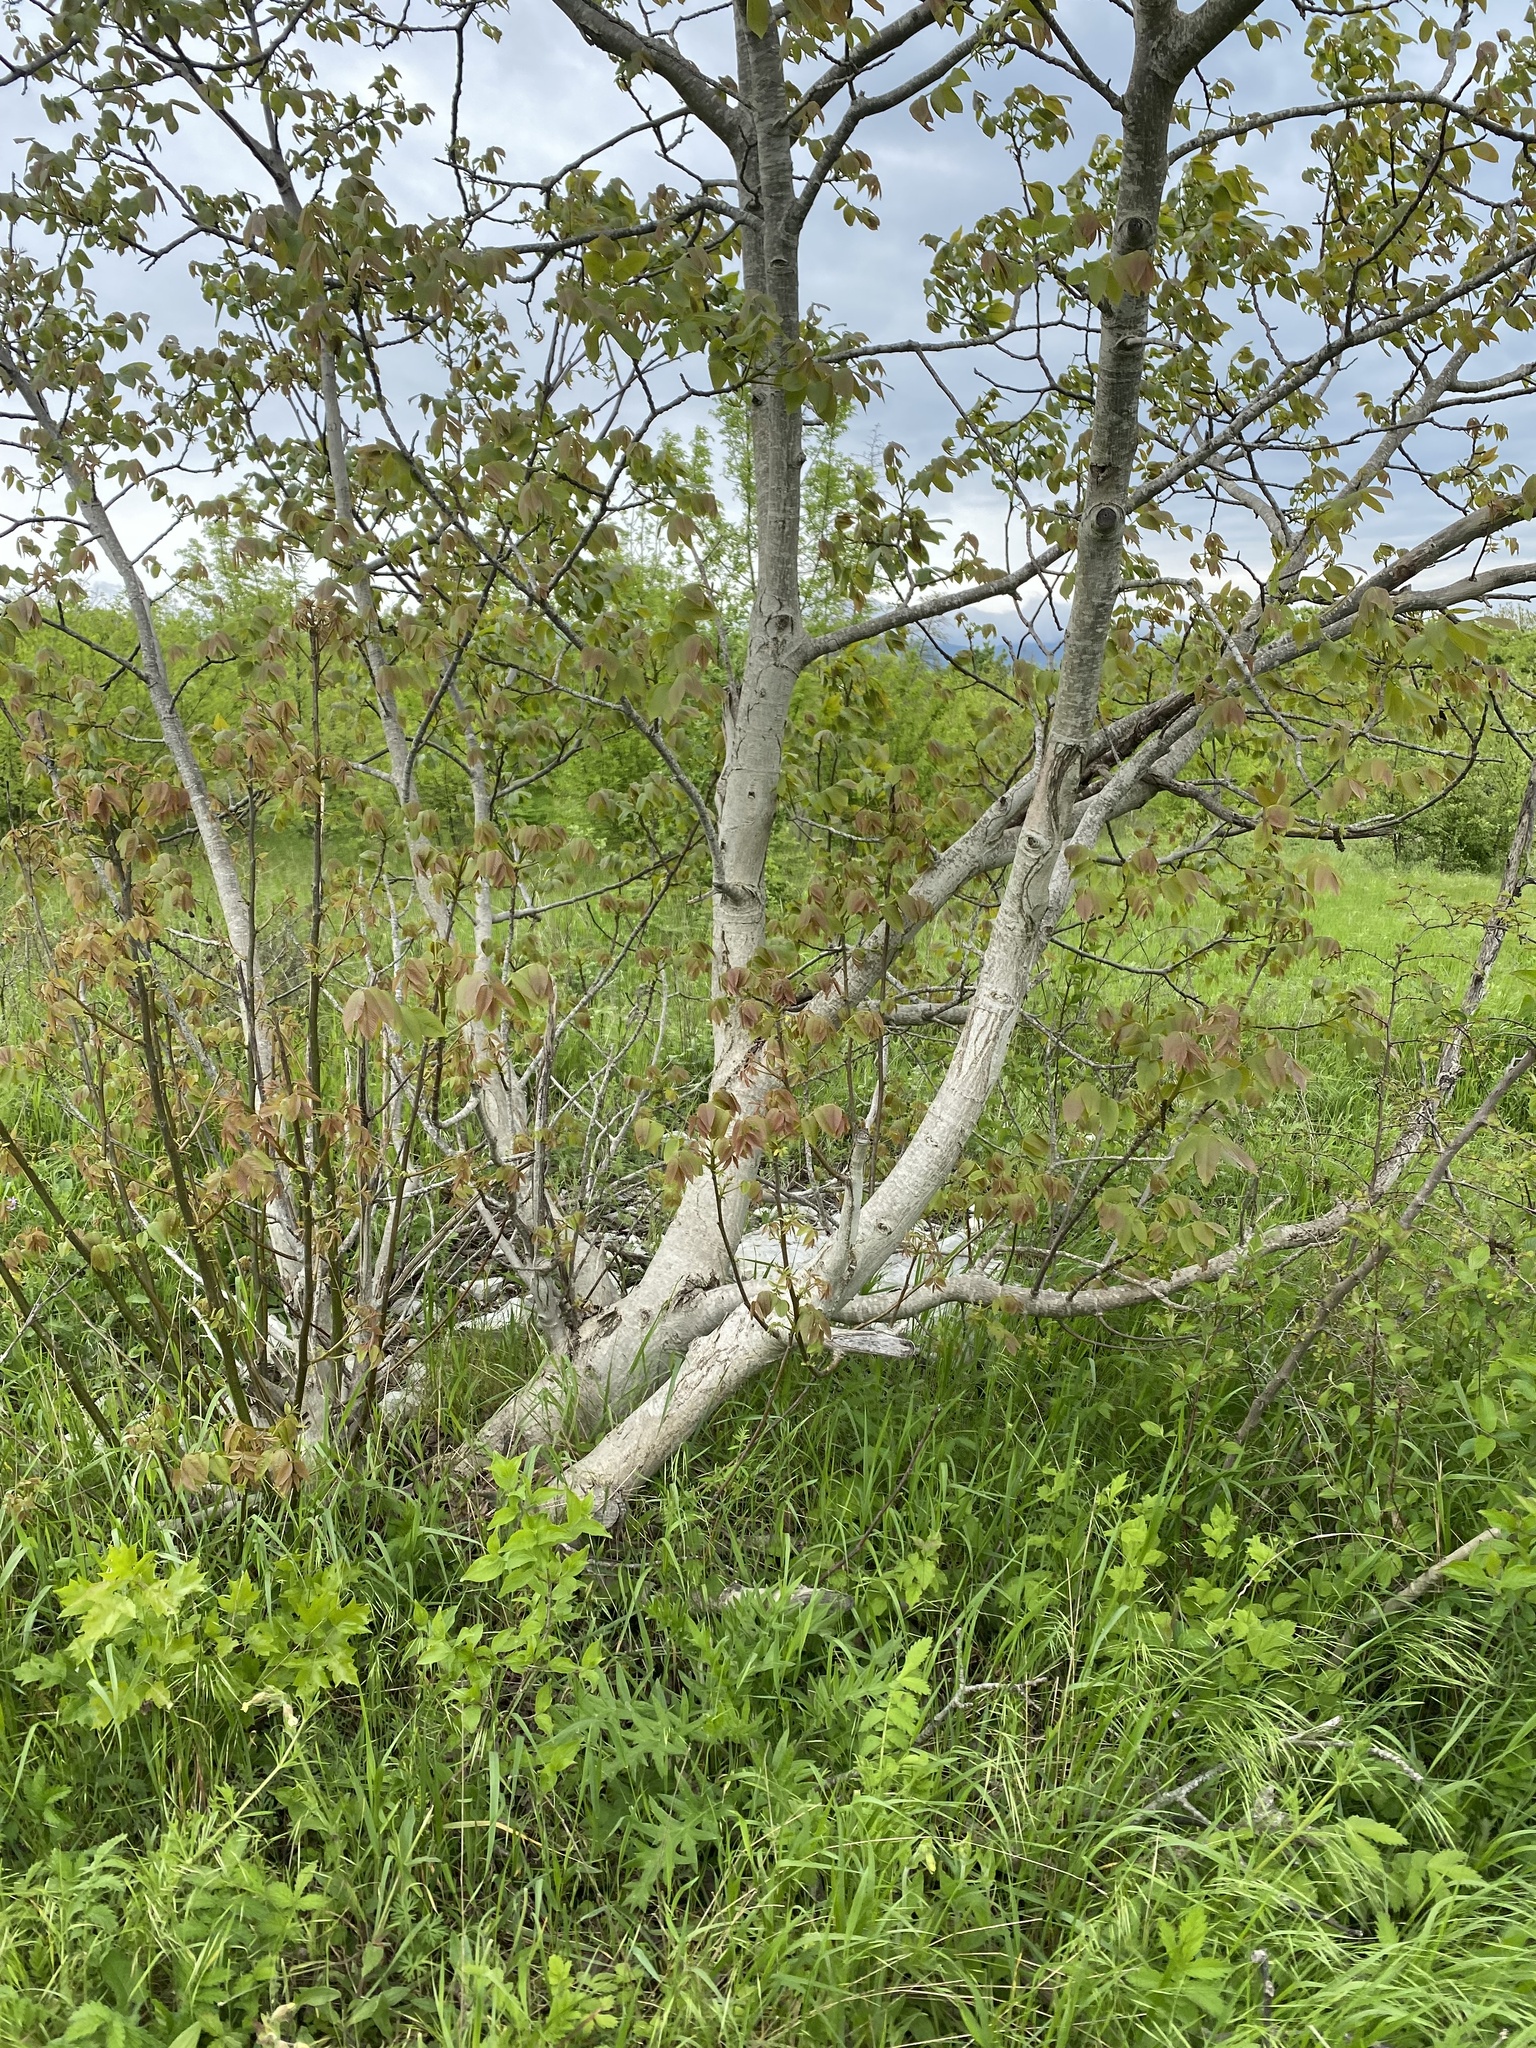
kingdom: Plantae
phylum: Tracheophyta
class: Magnoliopsida
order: Fagales
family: Juglandaceae
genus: Juglans
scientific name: Juglans regia
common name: Walnut
